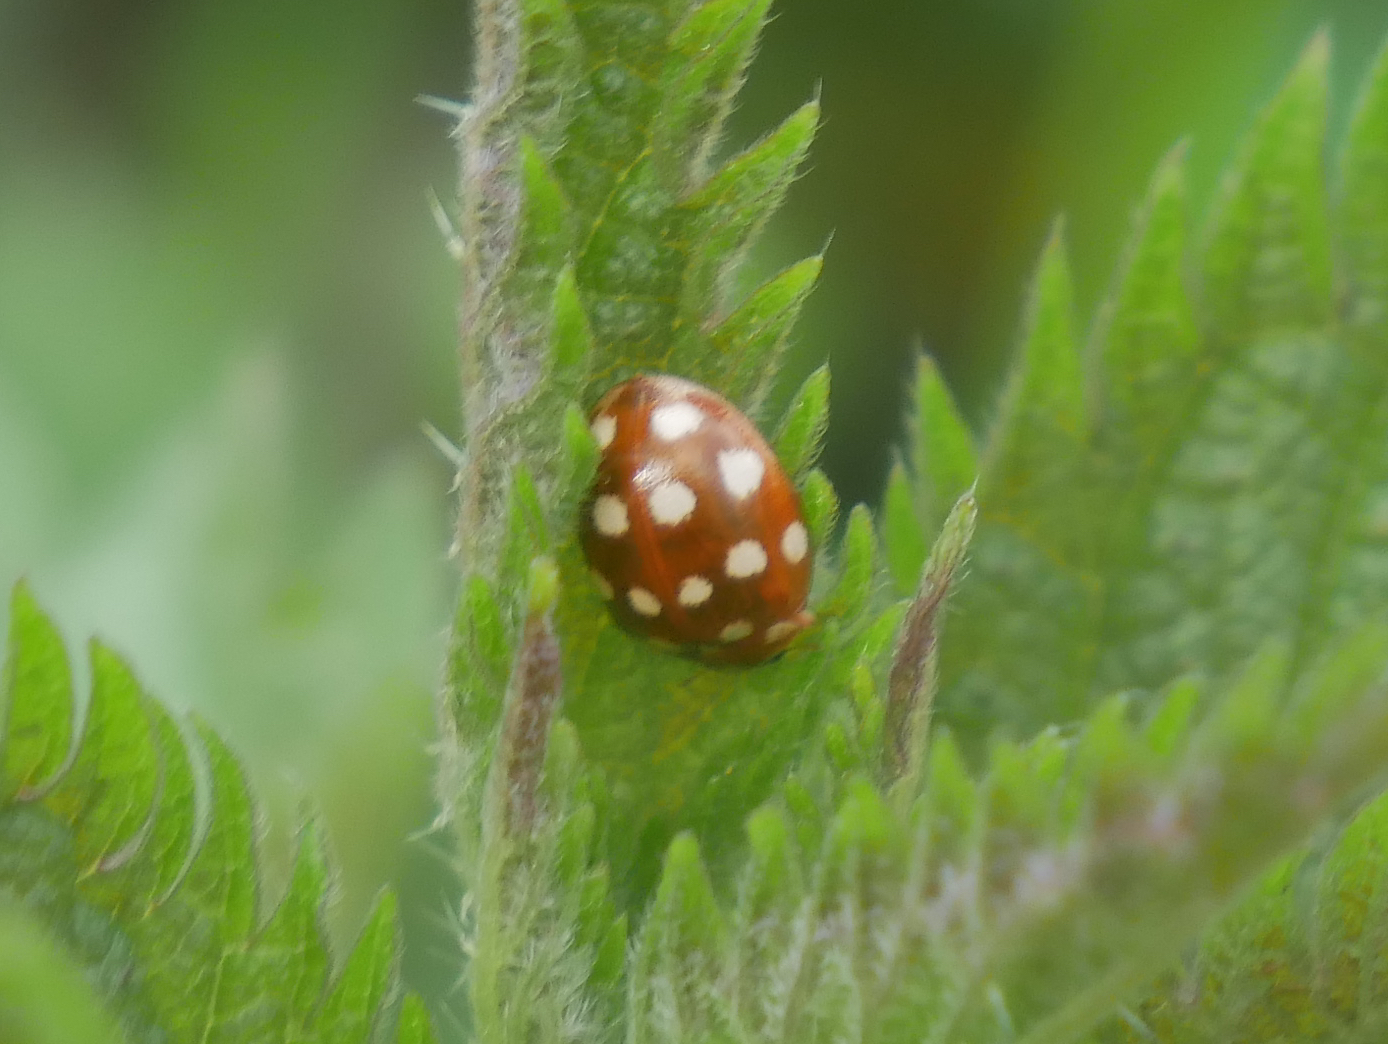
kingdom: Animalia
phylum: Arthropoda
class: Insecta
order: Coleoptera
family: Coccinellidae
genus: Calvia
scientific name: Calvia quatuordecimguttata
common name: Cream-spot ladybird
